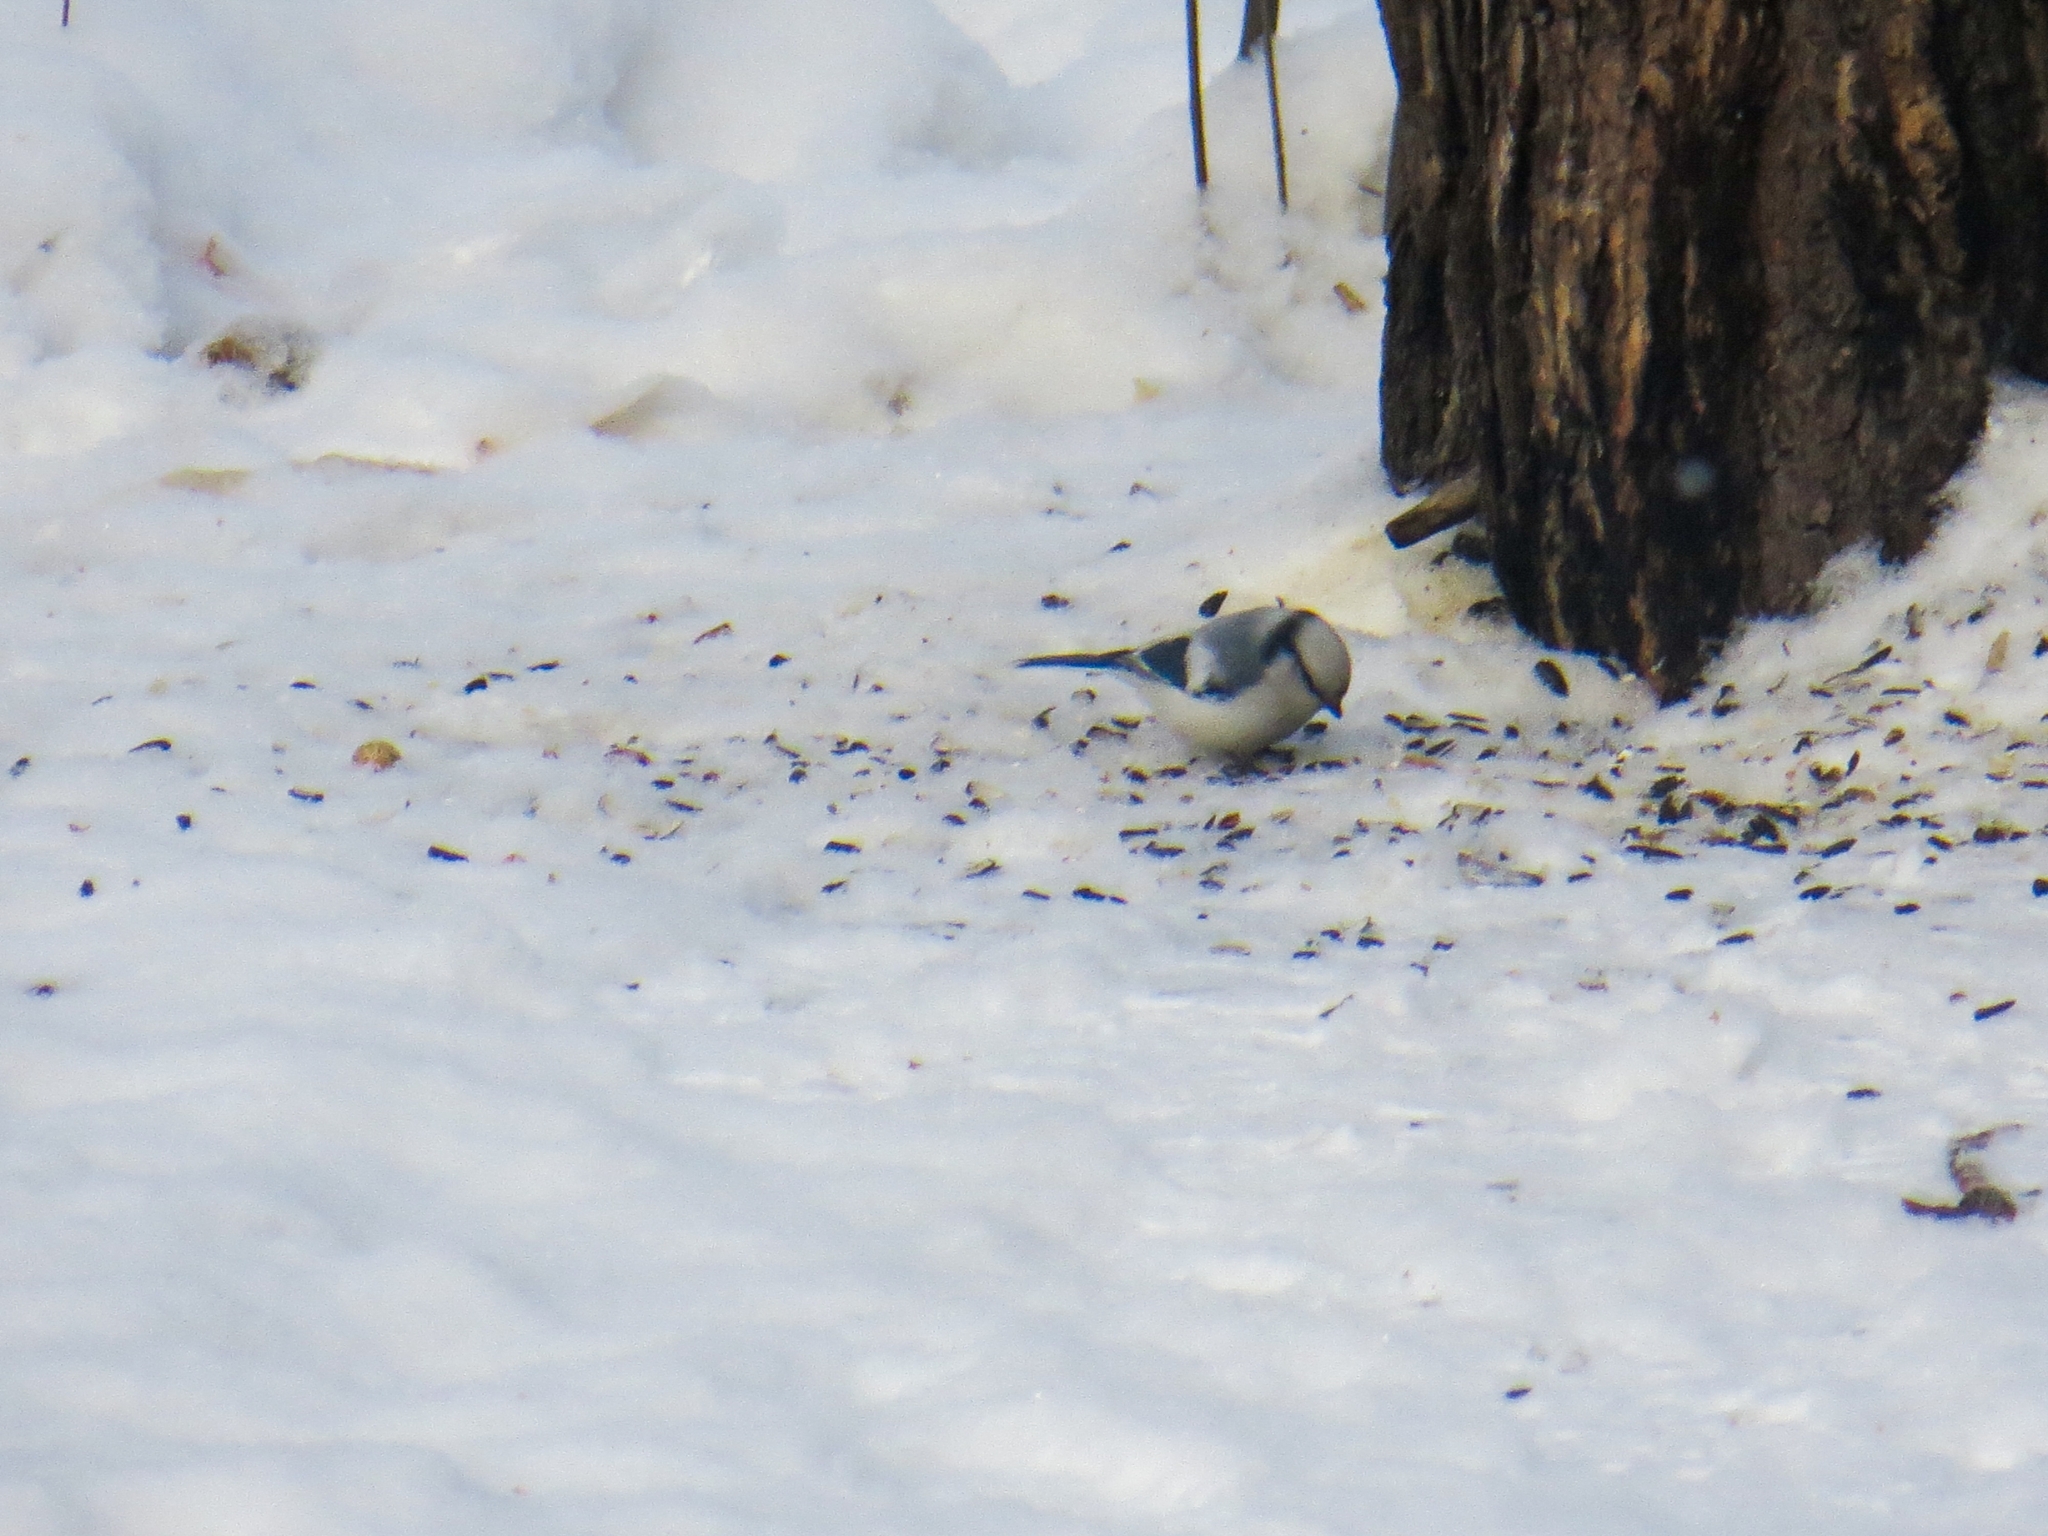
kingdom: Animalia
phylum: Chordata
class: Aves
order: Passeriformes
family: Paridae
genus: Cyanistes
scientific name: Cyanistes cyanus
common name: Azure tit
